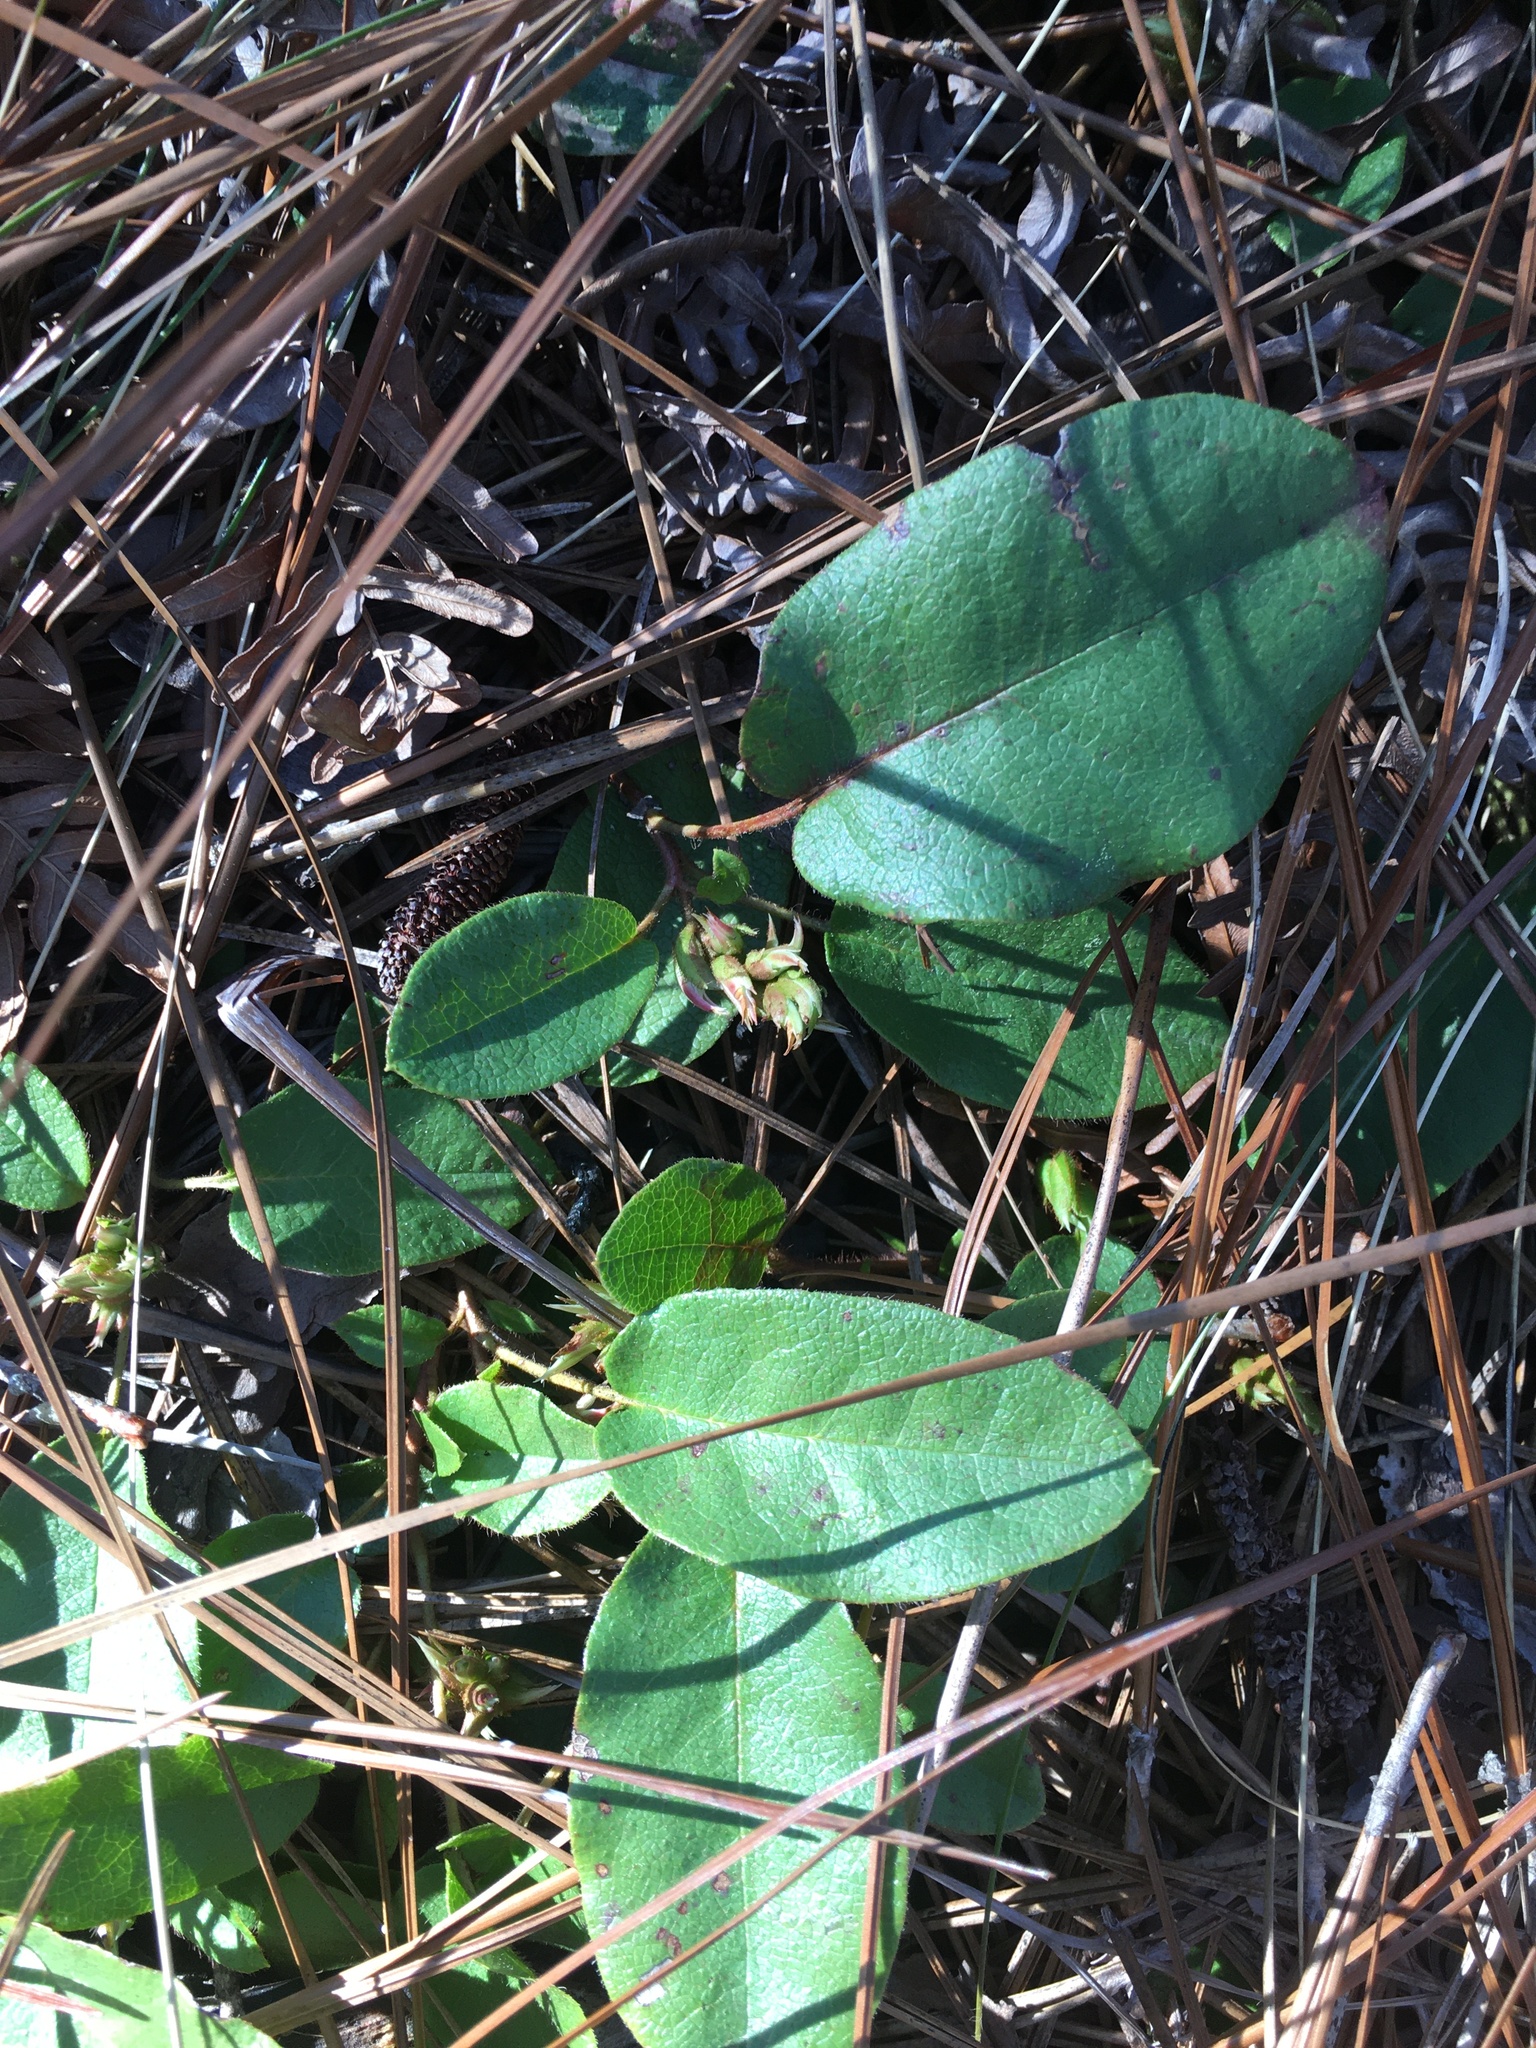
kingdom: Plantae
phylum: Tracheophyta
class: Magnoliopsida
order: Ericales
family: Ericaceae
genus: Epigaea
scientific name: Epigaea repens
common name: Gravelroot
